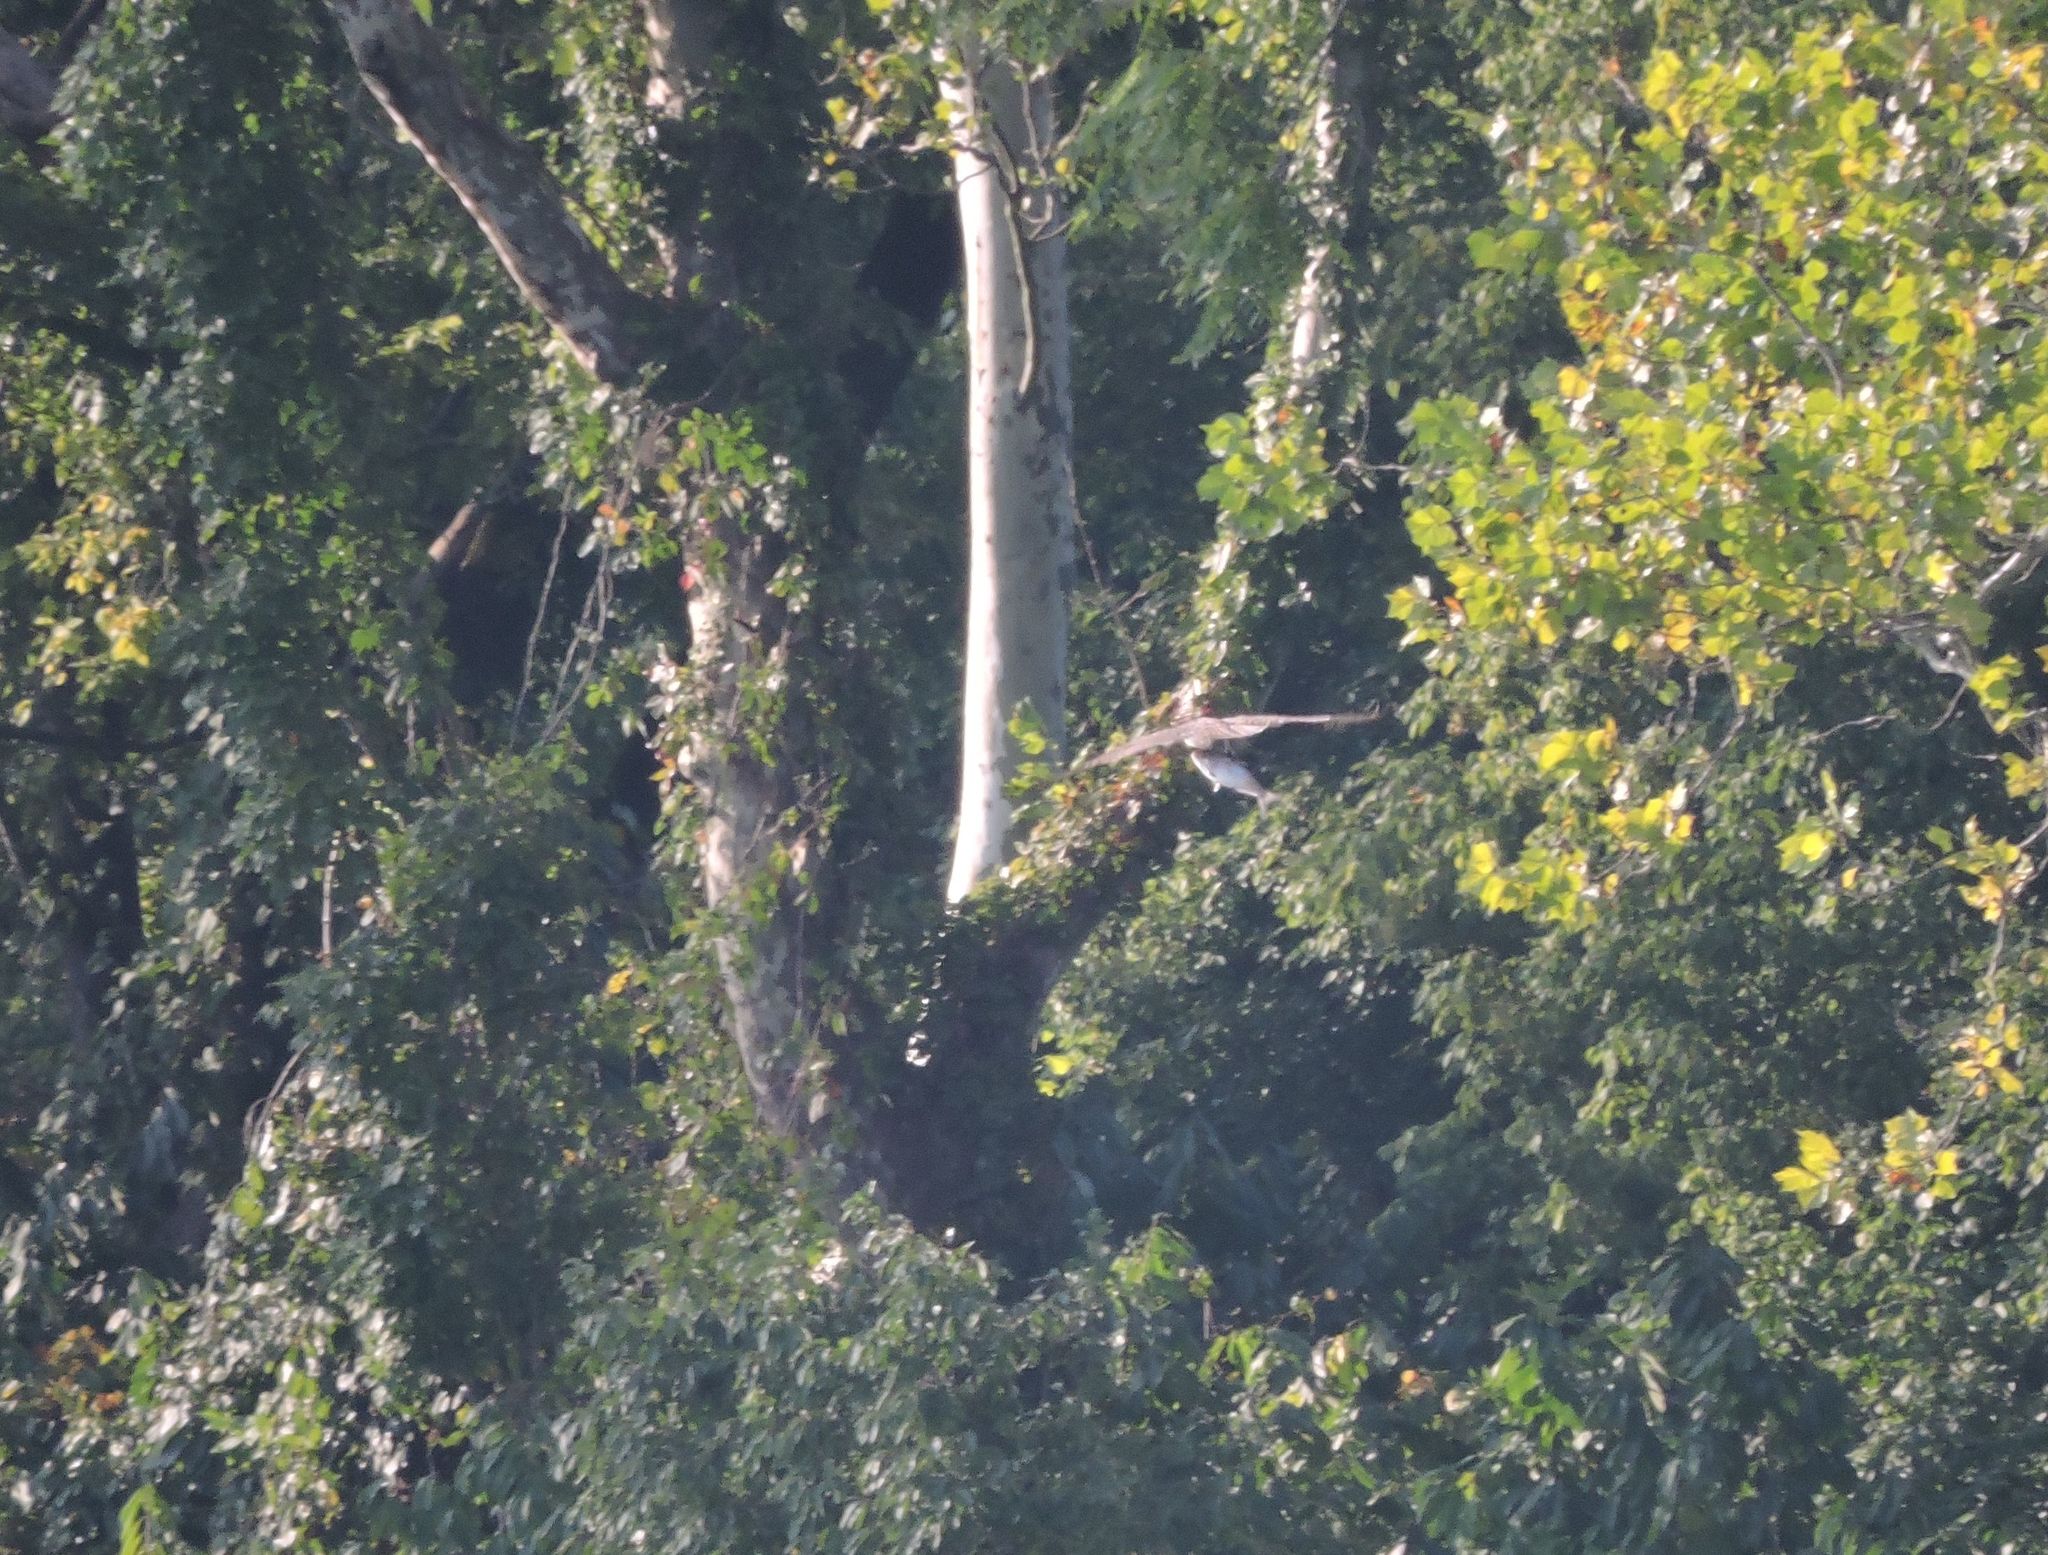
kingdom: Animalia
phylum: Chordata
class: Aves
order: Accipitriformes
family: Pandionidae
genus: Pandion
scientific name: Pandion haliaetus
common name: Osprey
